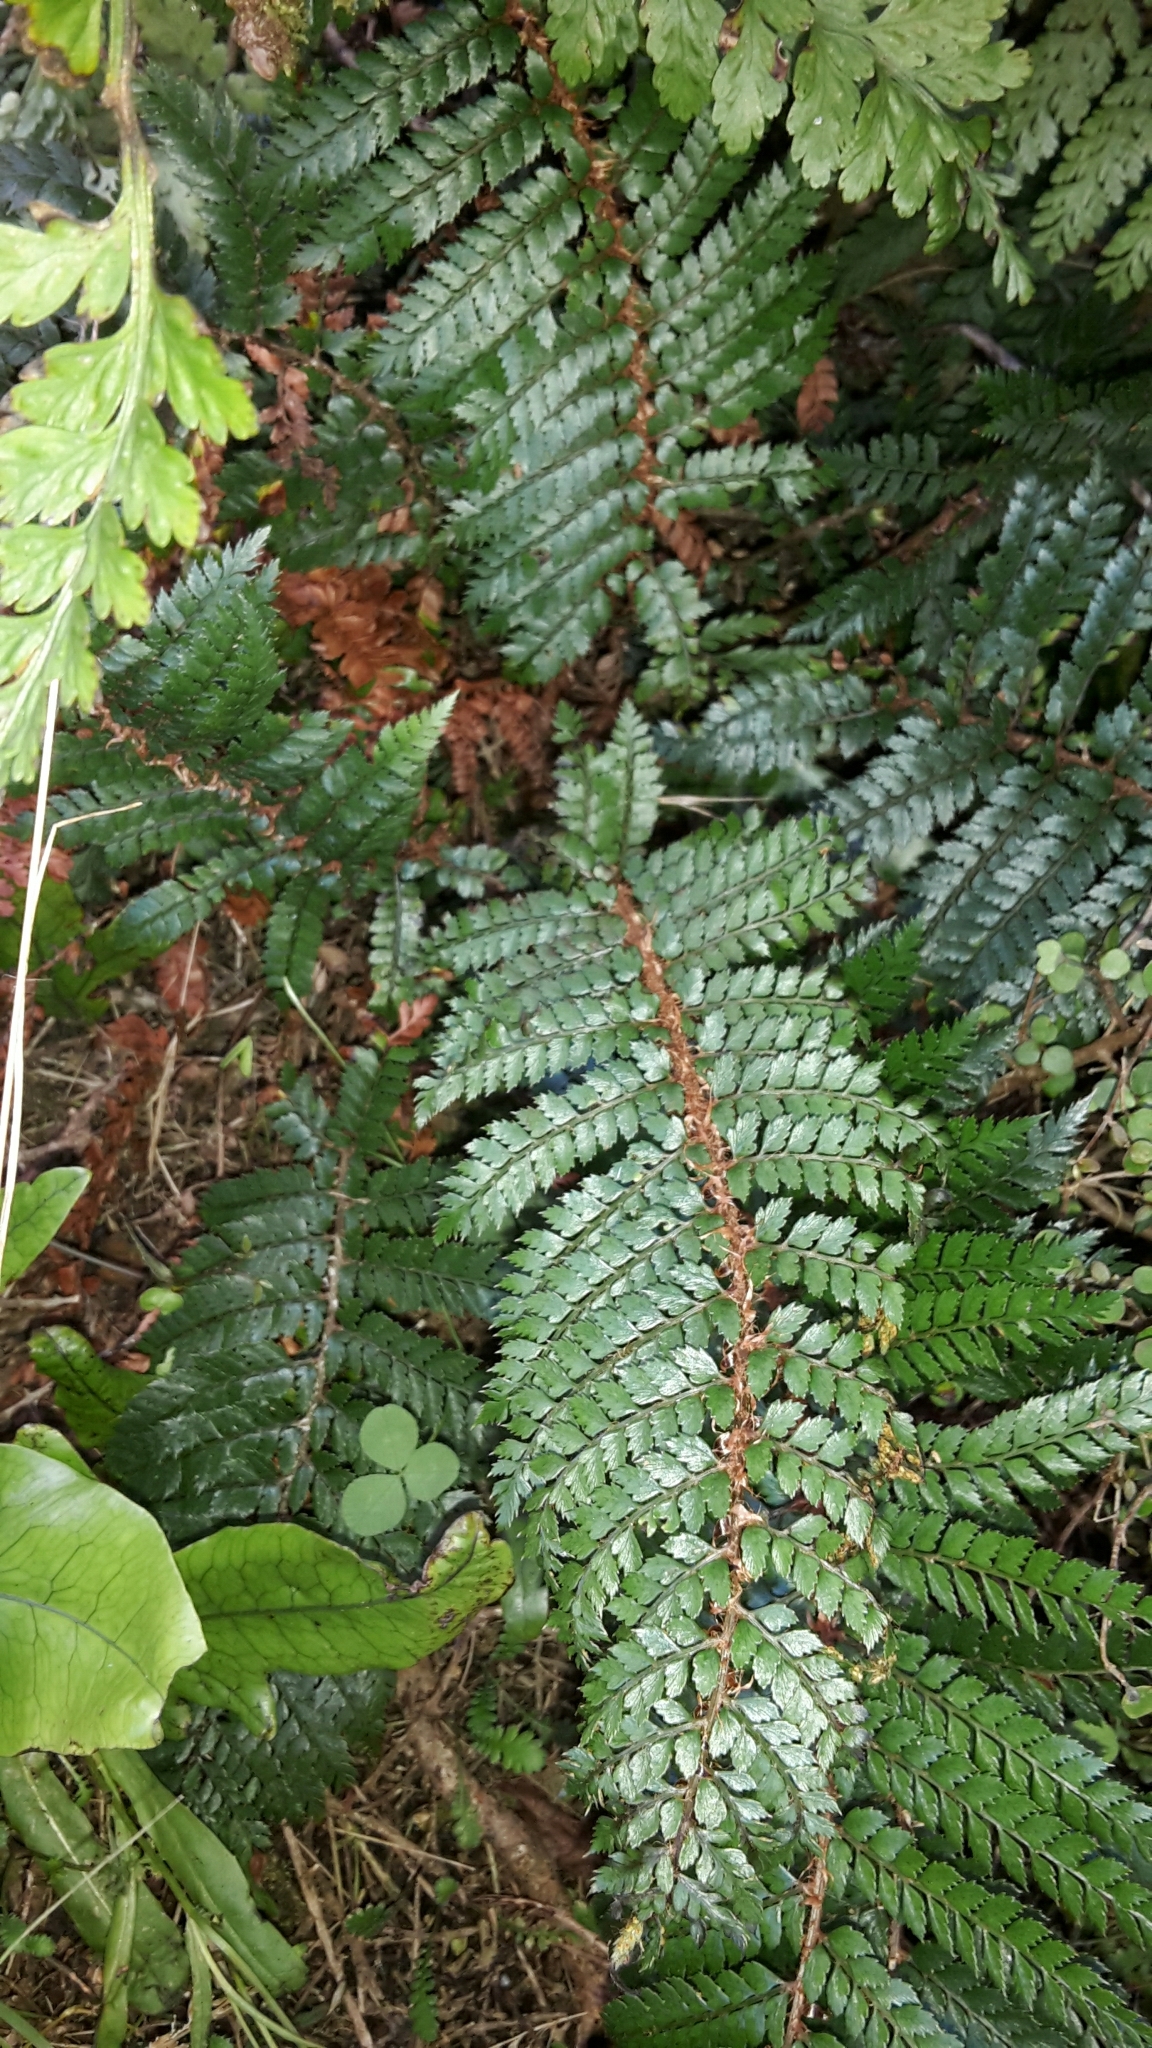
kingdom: Plantae
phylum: Tracheophyta
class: Polypodiopsida
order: Polypodiales
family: Dryopteridaceae
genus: Polystichum
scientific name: Polystichum vestitum
